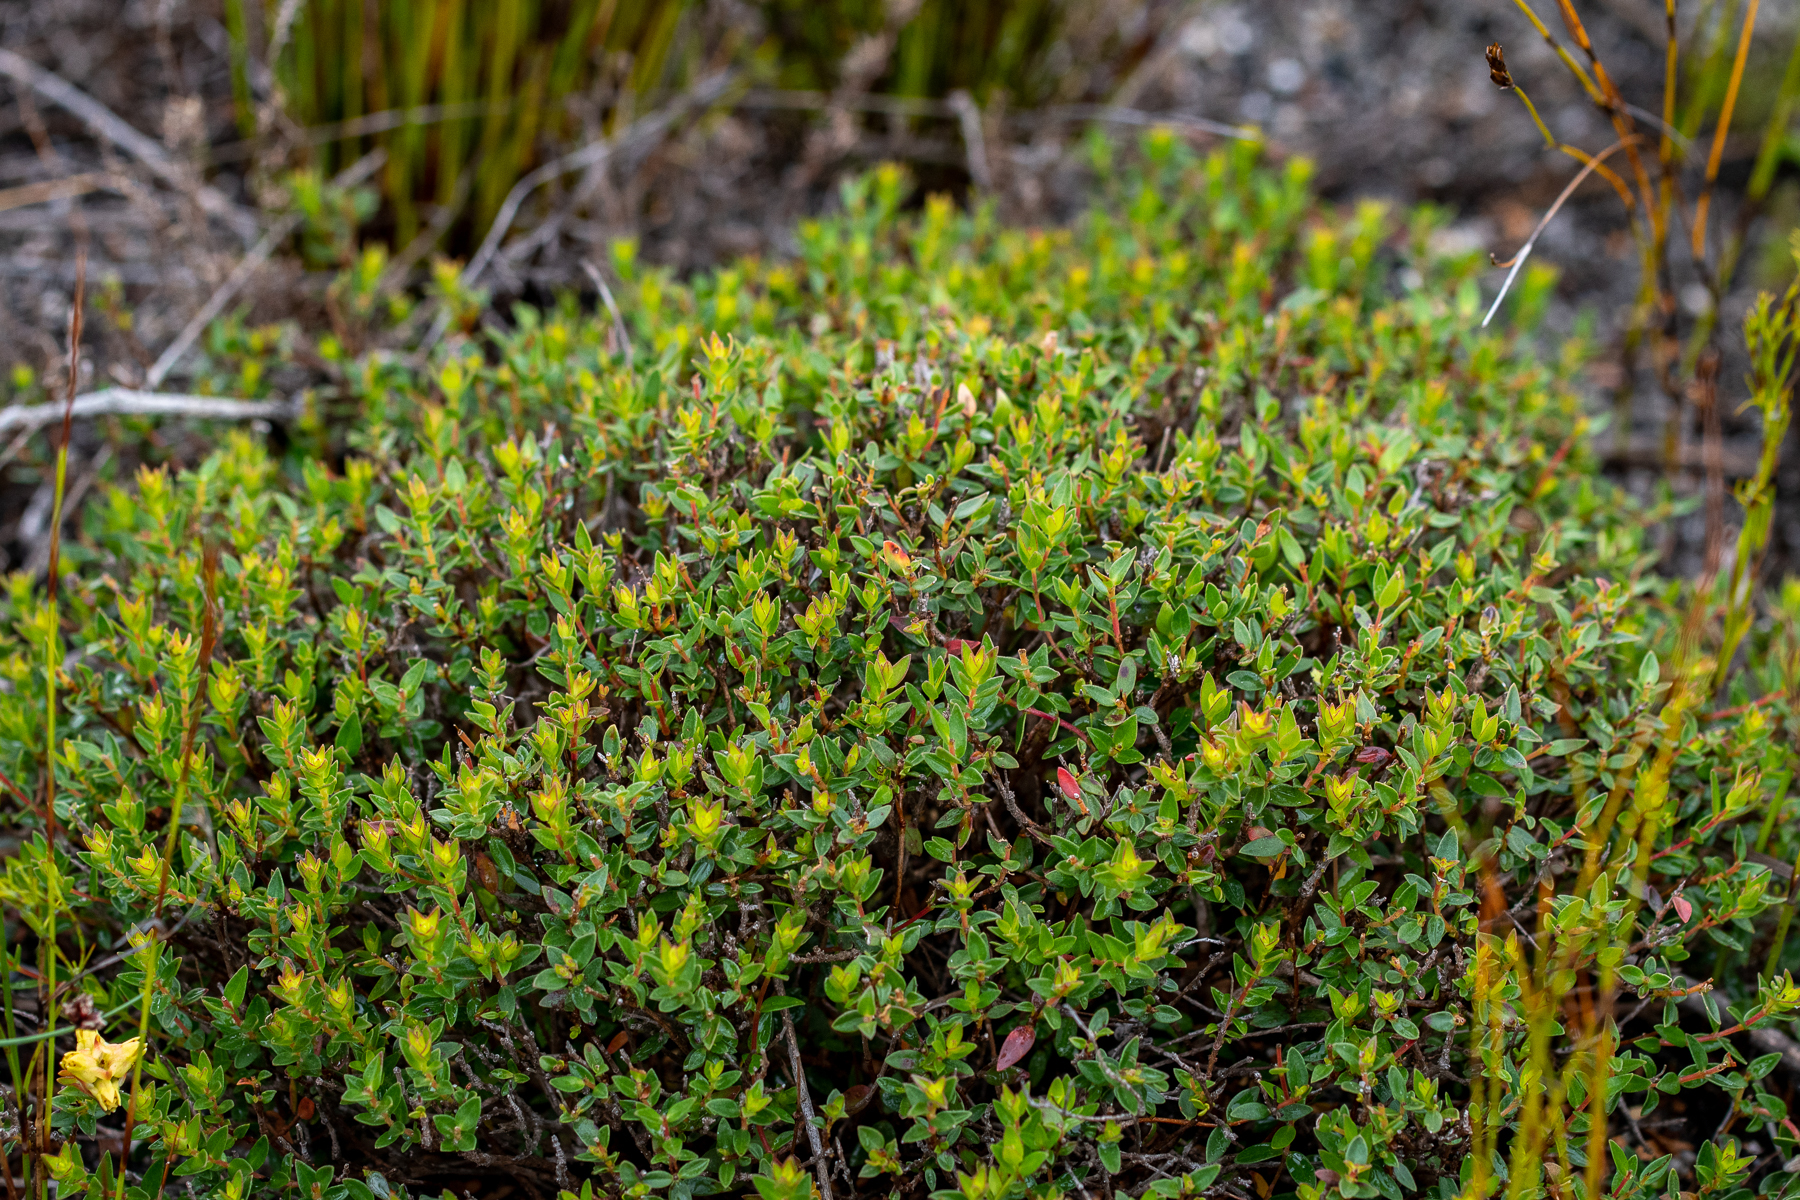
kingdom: Plantae
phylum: Tracheophyta
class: Magnoliopsida
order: Myrtales
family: Penaeaceae
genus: Penaea
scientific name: Penaea mucronata
